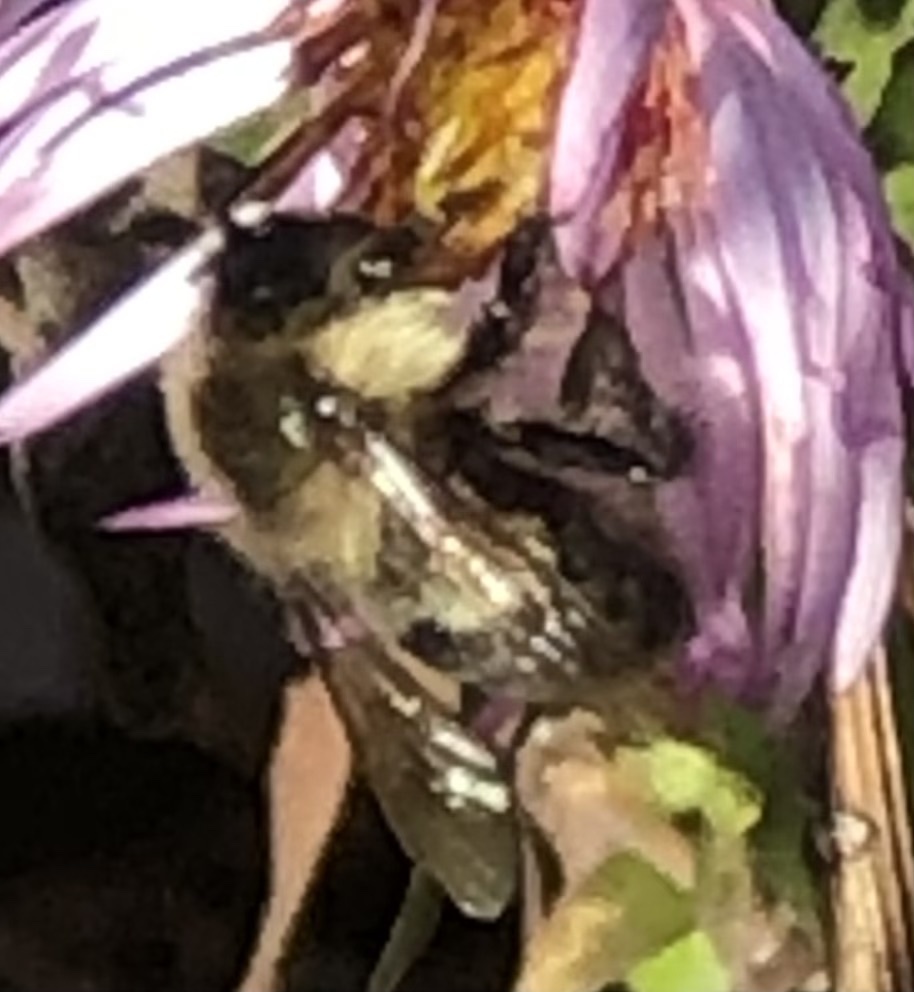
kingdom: Animalia
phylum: Arthropoda
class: Insecta
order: Hymenoptera
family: Apidae
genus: Bombus
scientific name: Bombus impatiens
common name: Common eastern bumble bee
